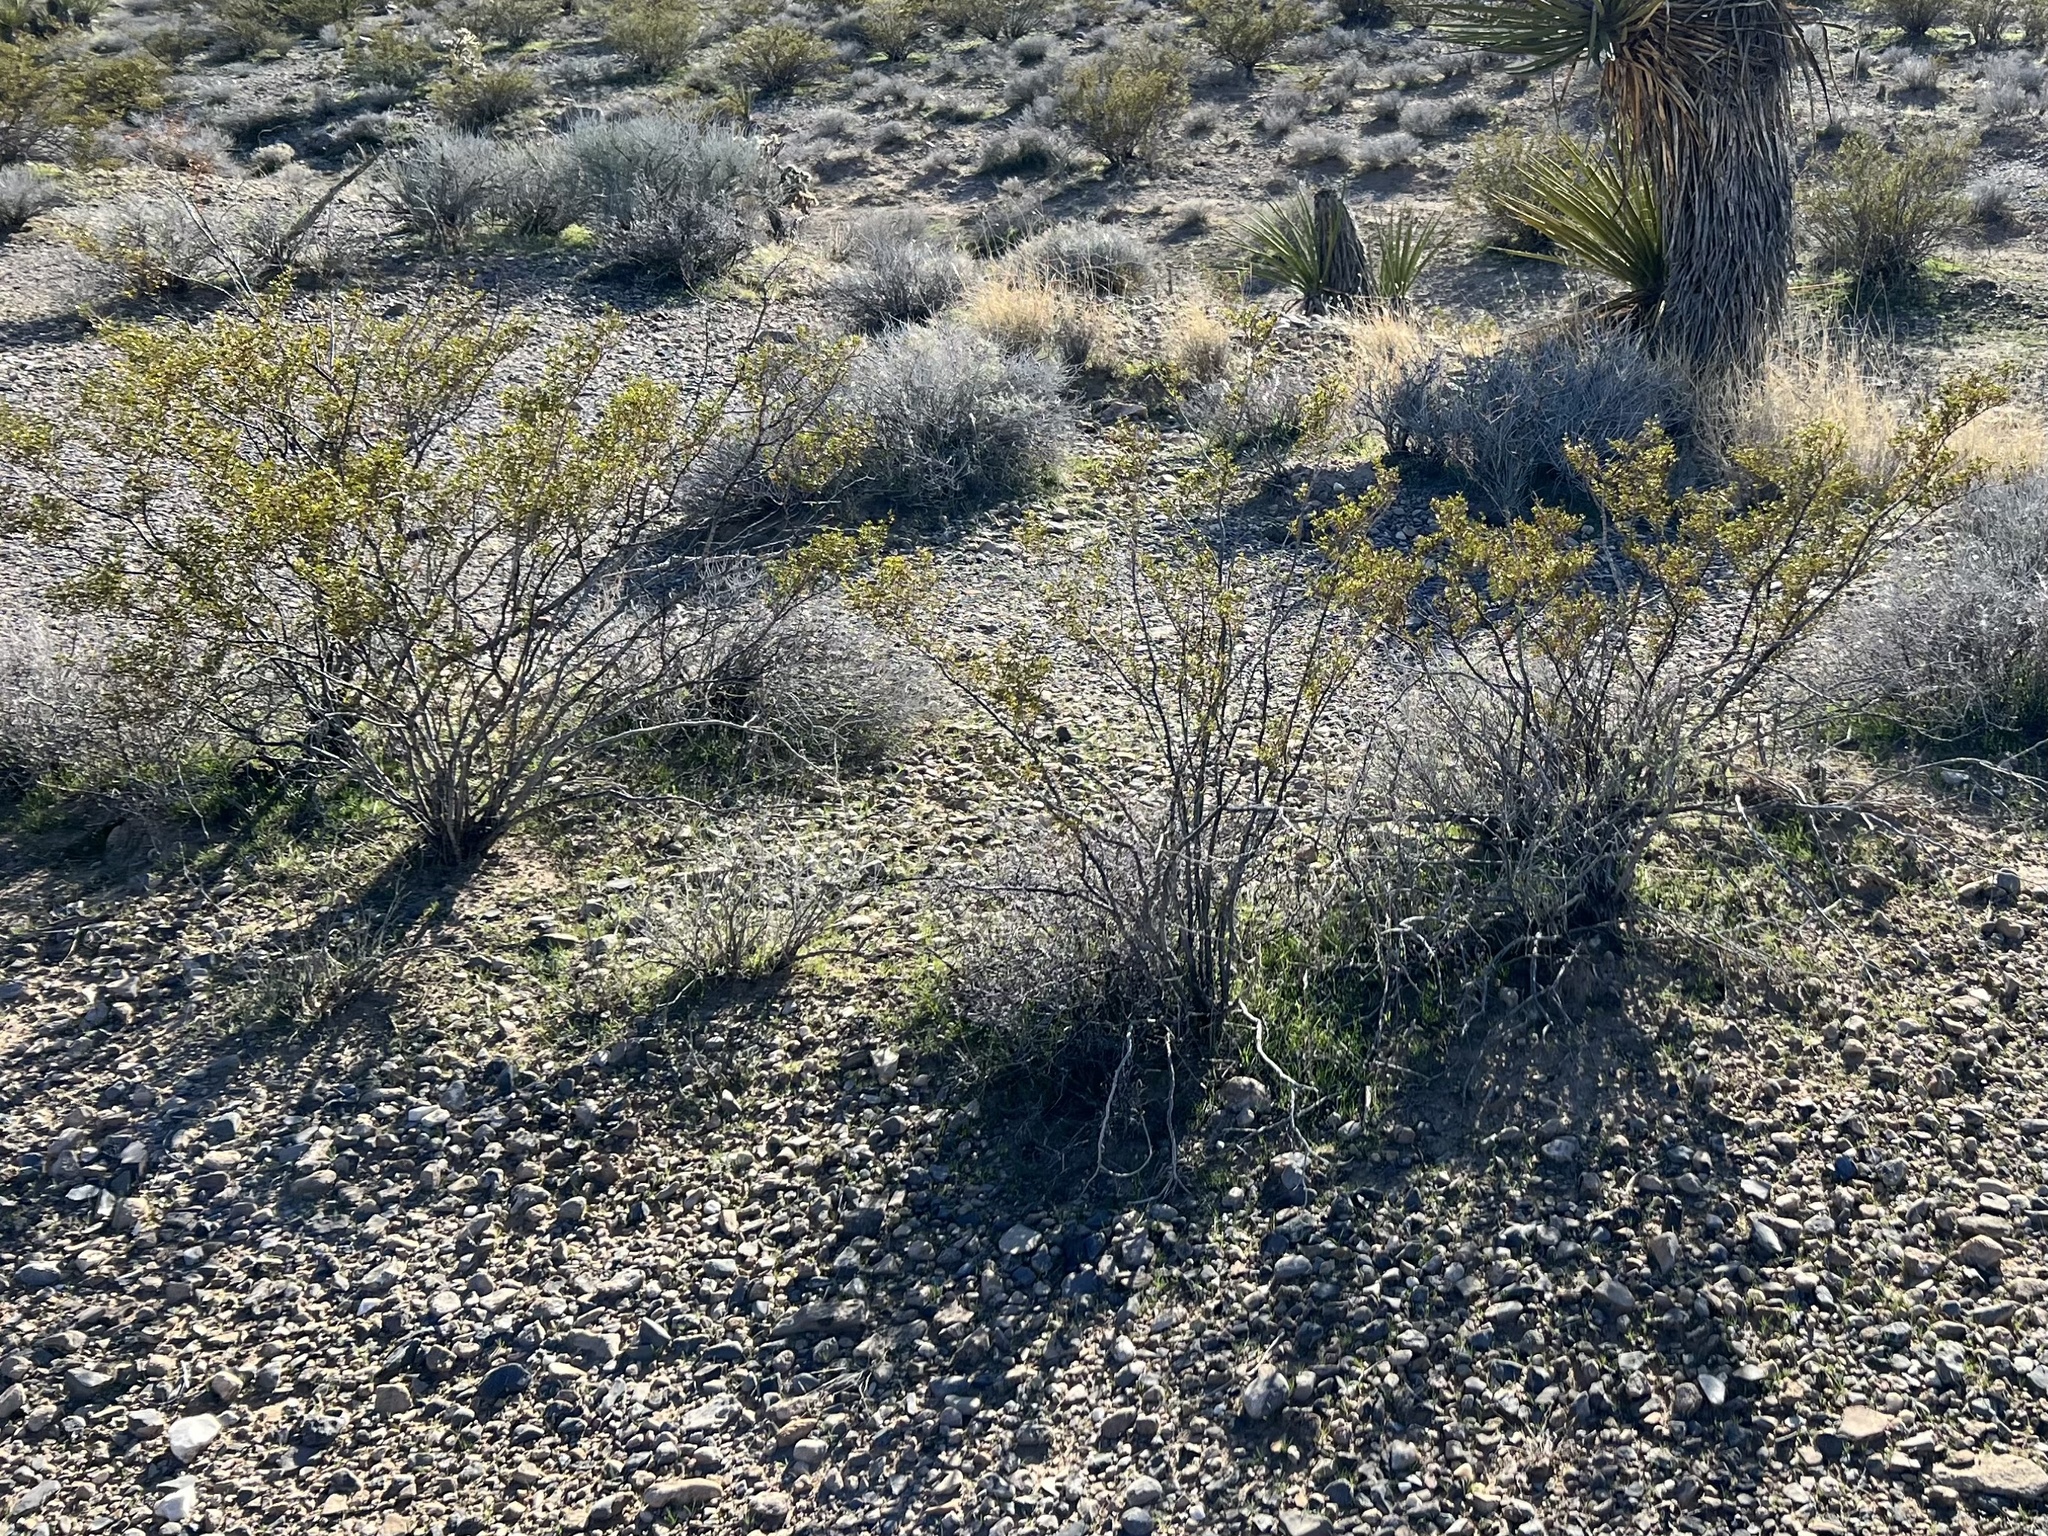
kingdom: Plantae
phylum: Tracheophyta
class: Magnoliopsida
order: Zygophyllales
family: Zygophyllaceae
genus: Larrea
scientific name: Larrea tridentata
